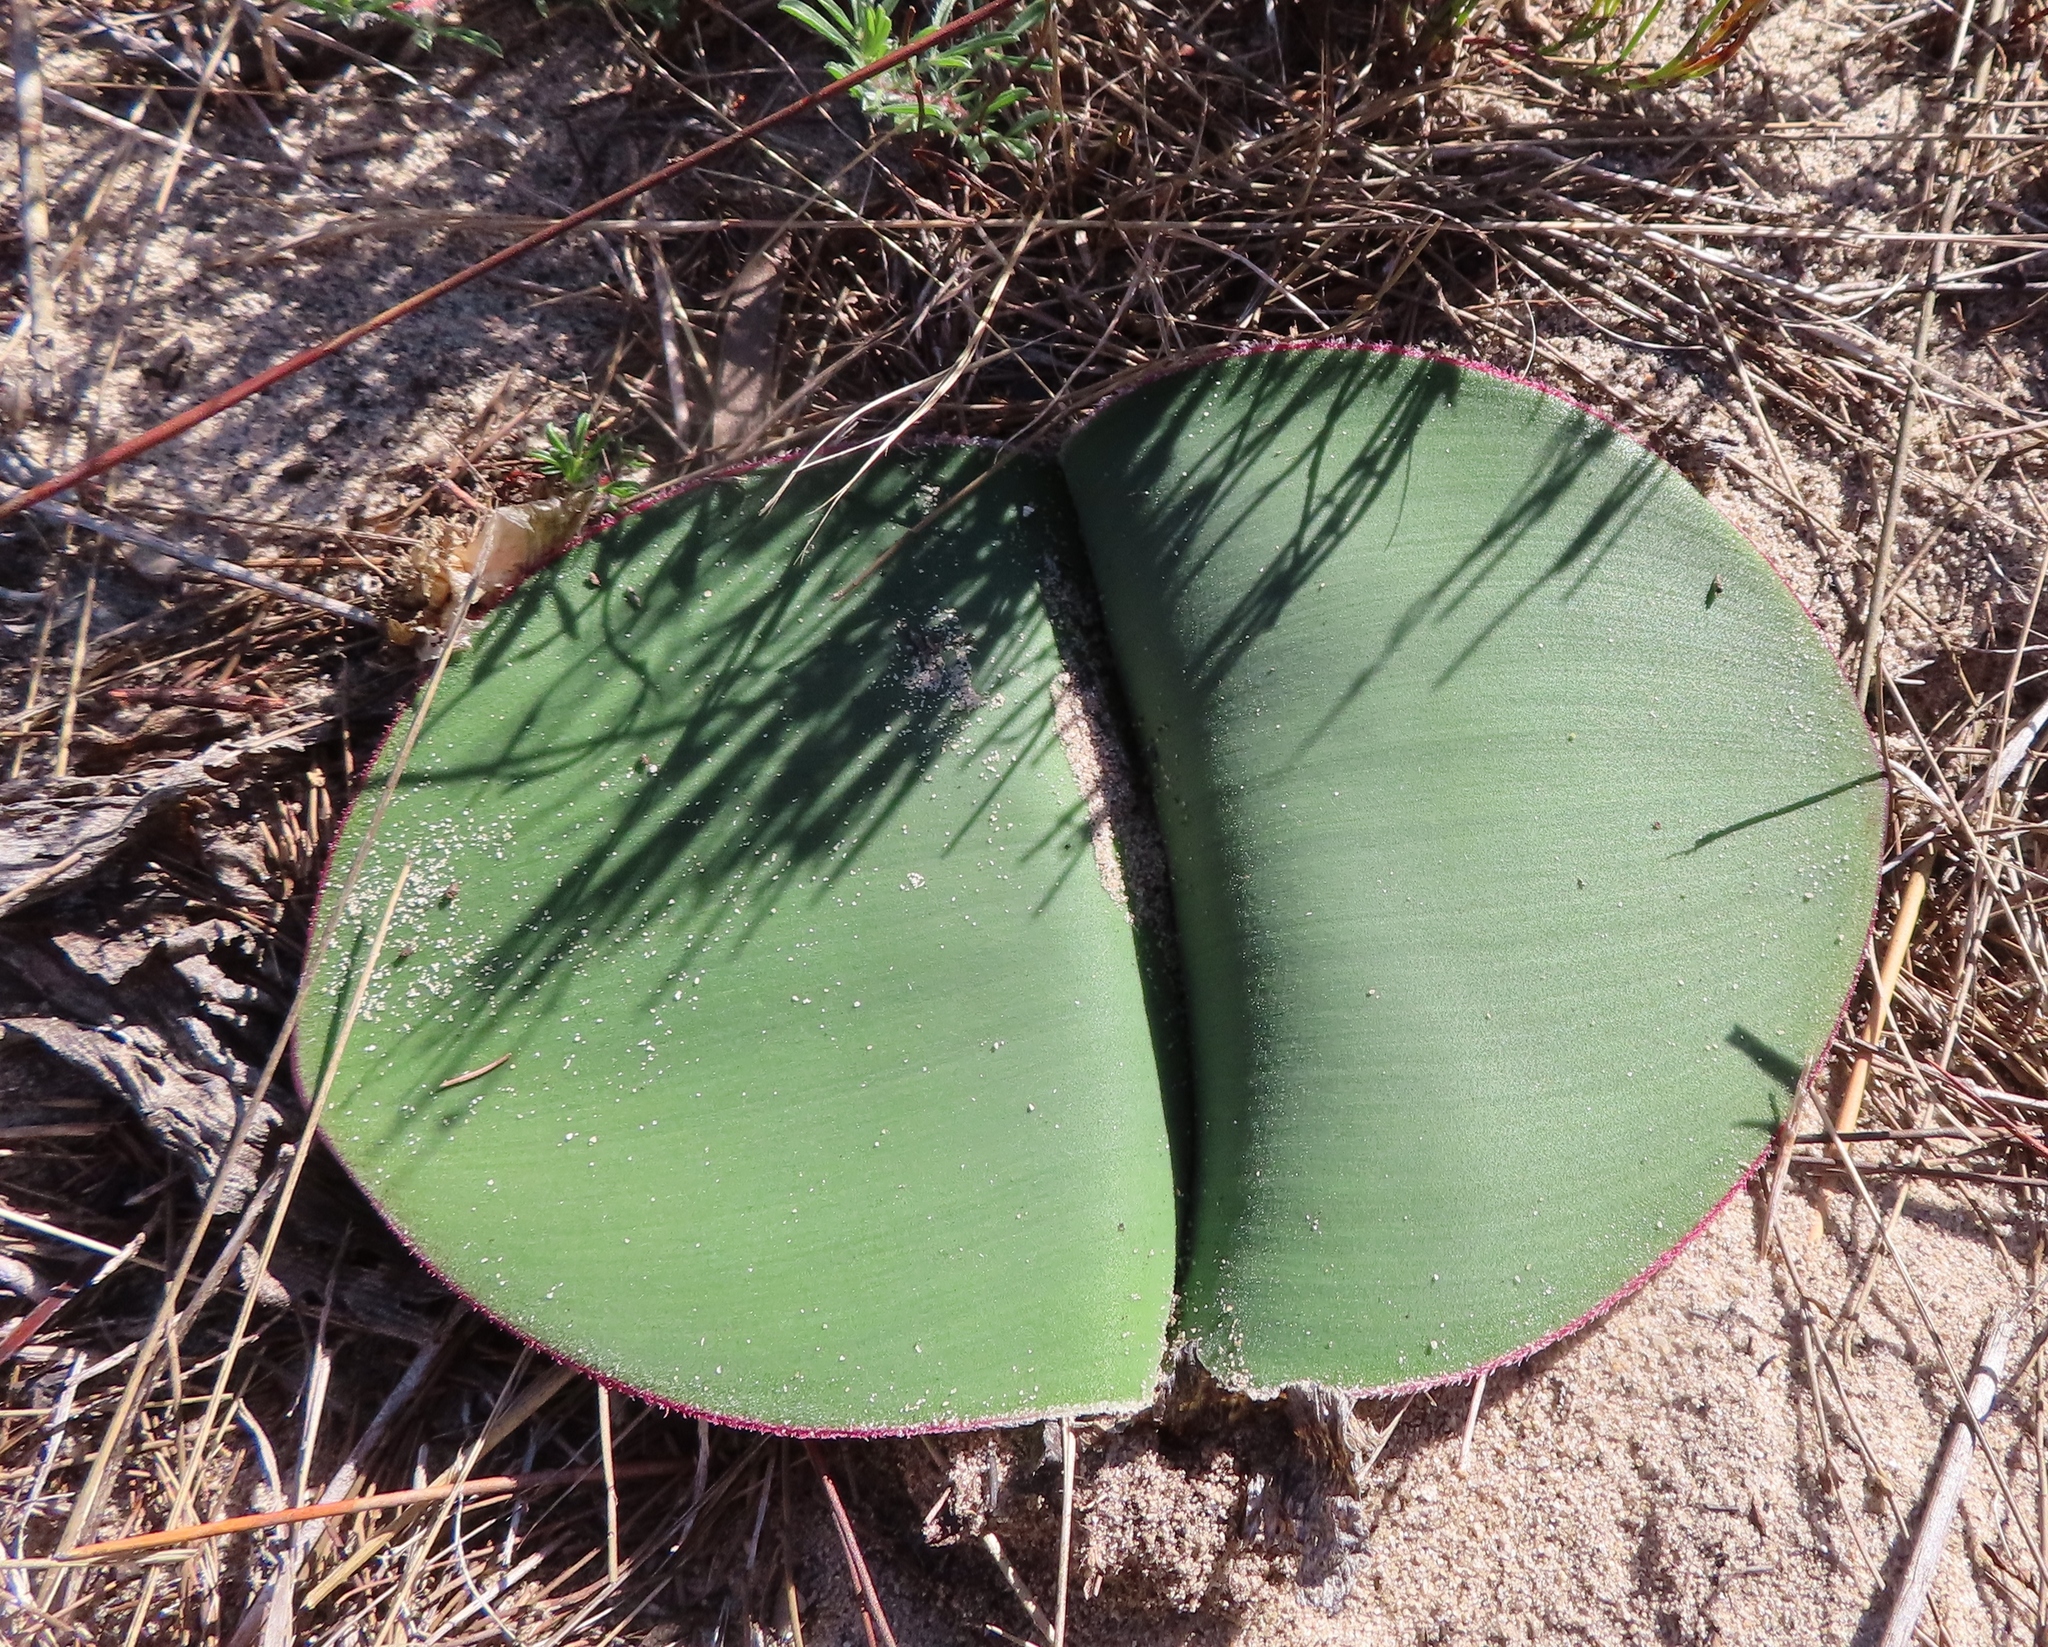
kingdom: Plantae
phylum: Tracheophyta
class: Liliopsida
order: Asparagales
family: Amaryllidaceae
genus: Haemanthus
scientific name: Haemanthus sanguineus
